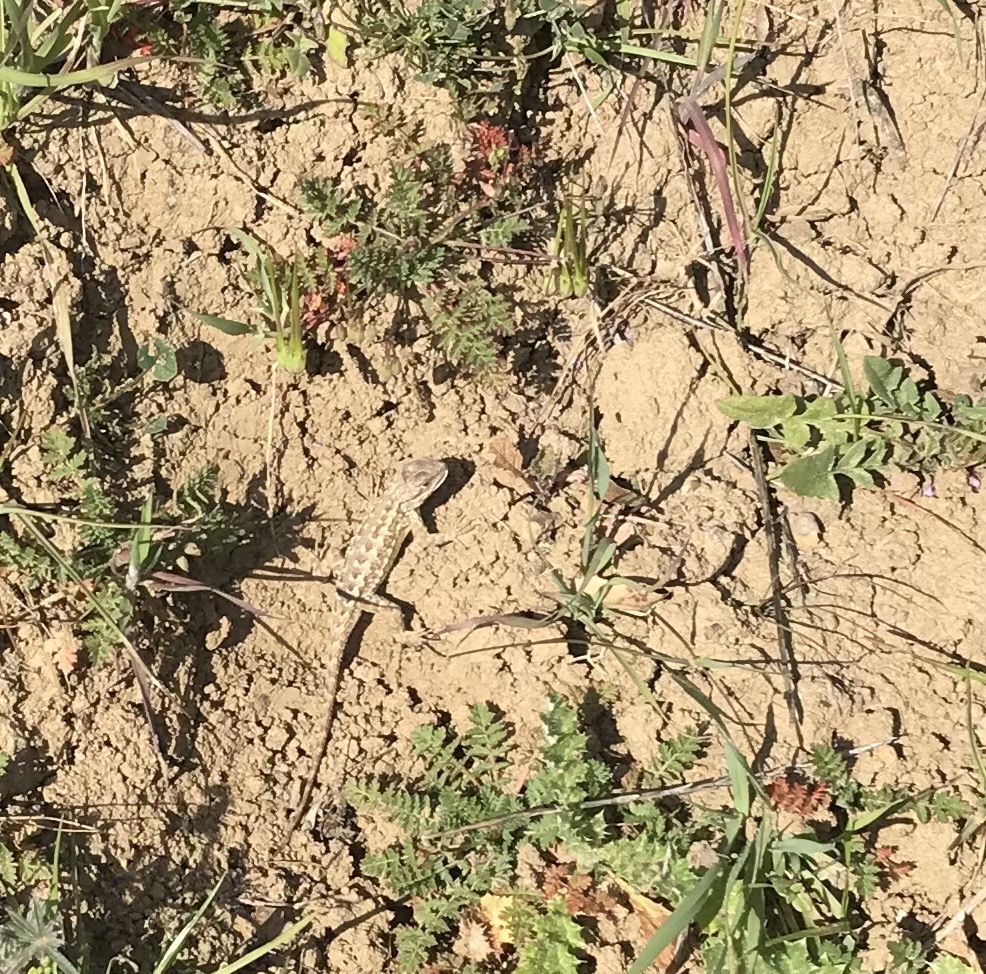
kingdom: Animalia
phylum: Chordata
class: Squamata
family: Phrynosomatidae
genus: Sceloporus
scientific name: Sceloporus occidentalis
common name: Western fence lizard
